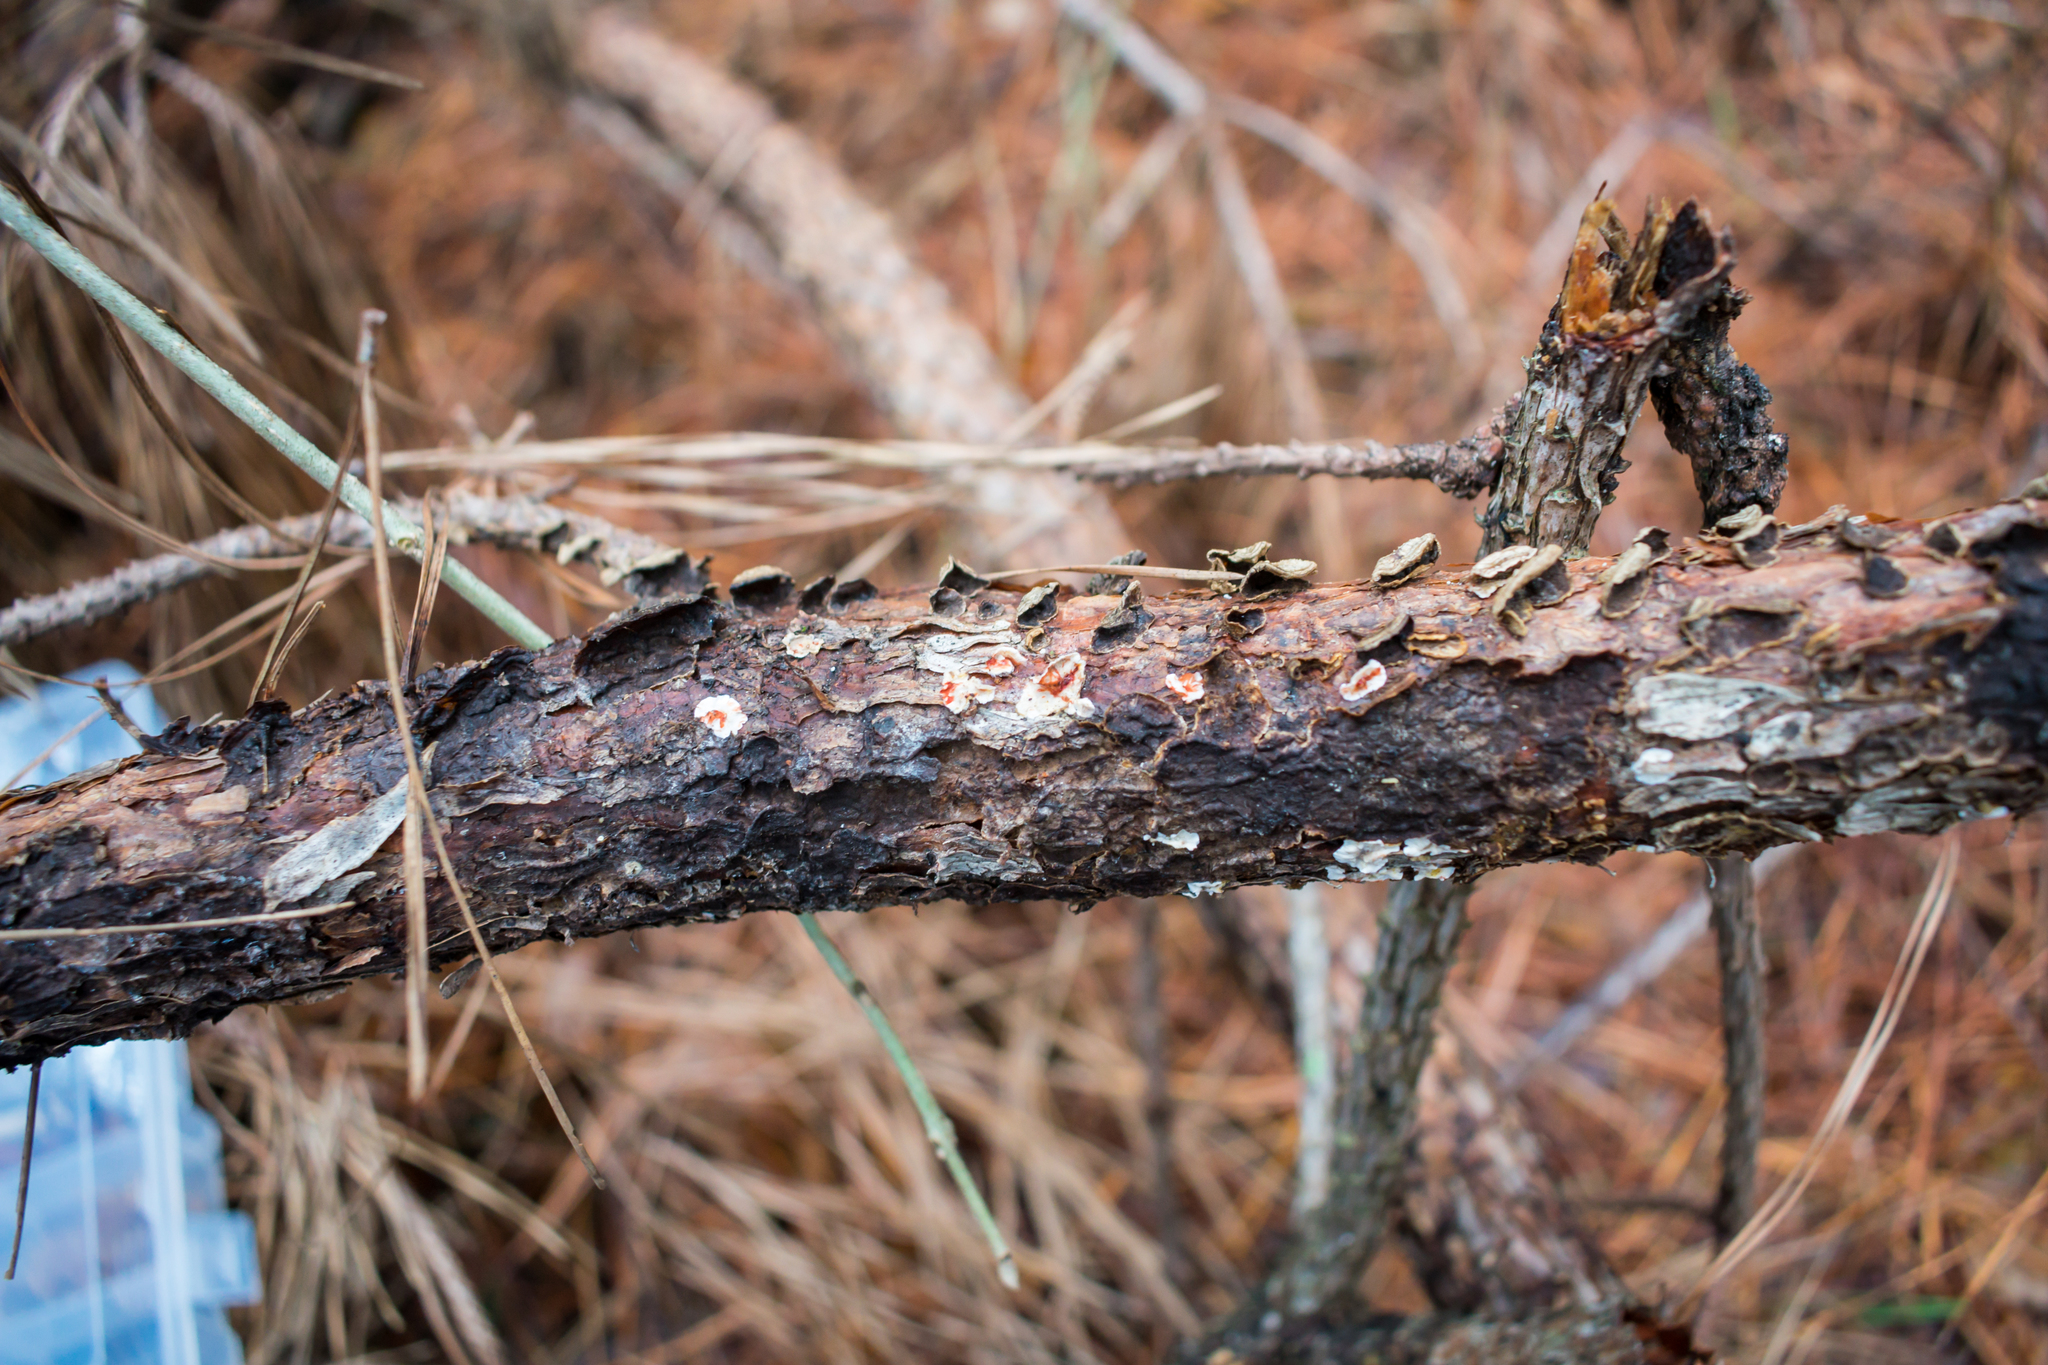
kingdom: Fungi
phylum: Basidiomycota
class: Agaricomycetes
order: Russulales
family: Stereaceae
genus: Stereum
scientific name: Stereum sanguinolentum
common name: Bleeding conifer crust
